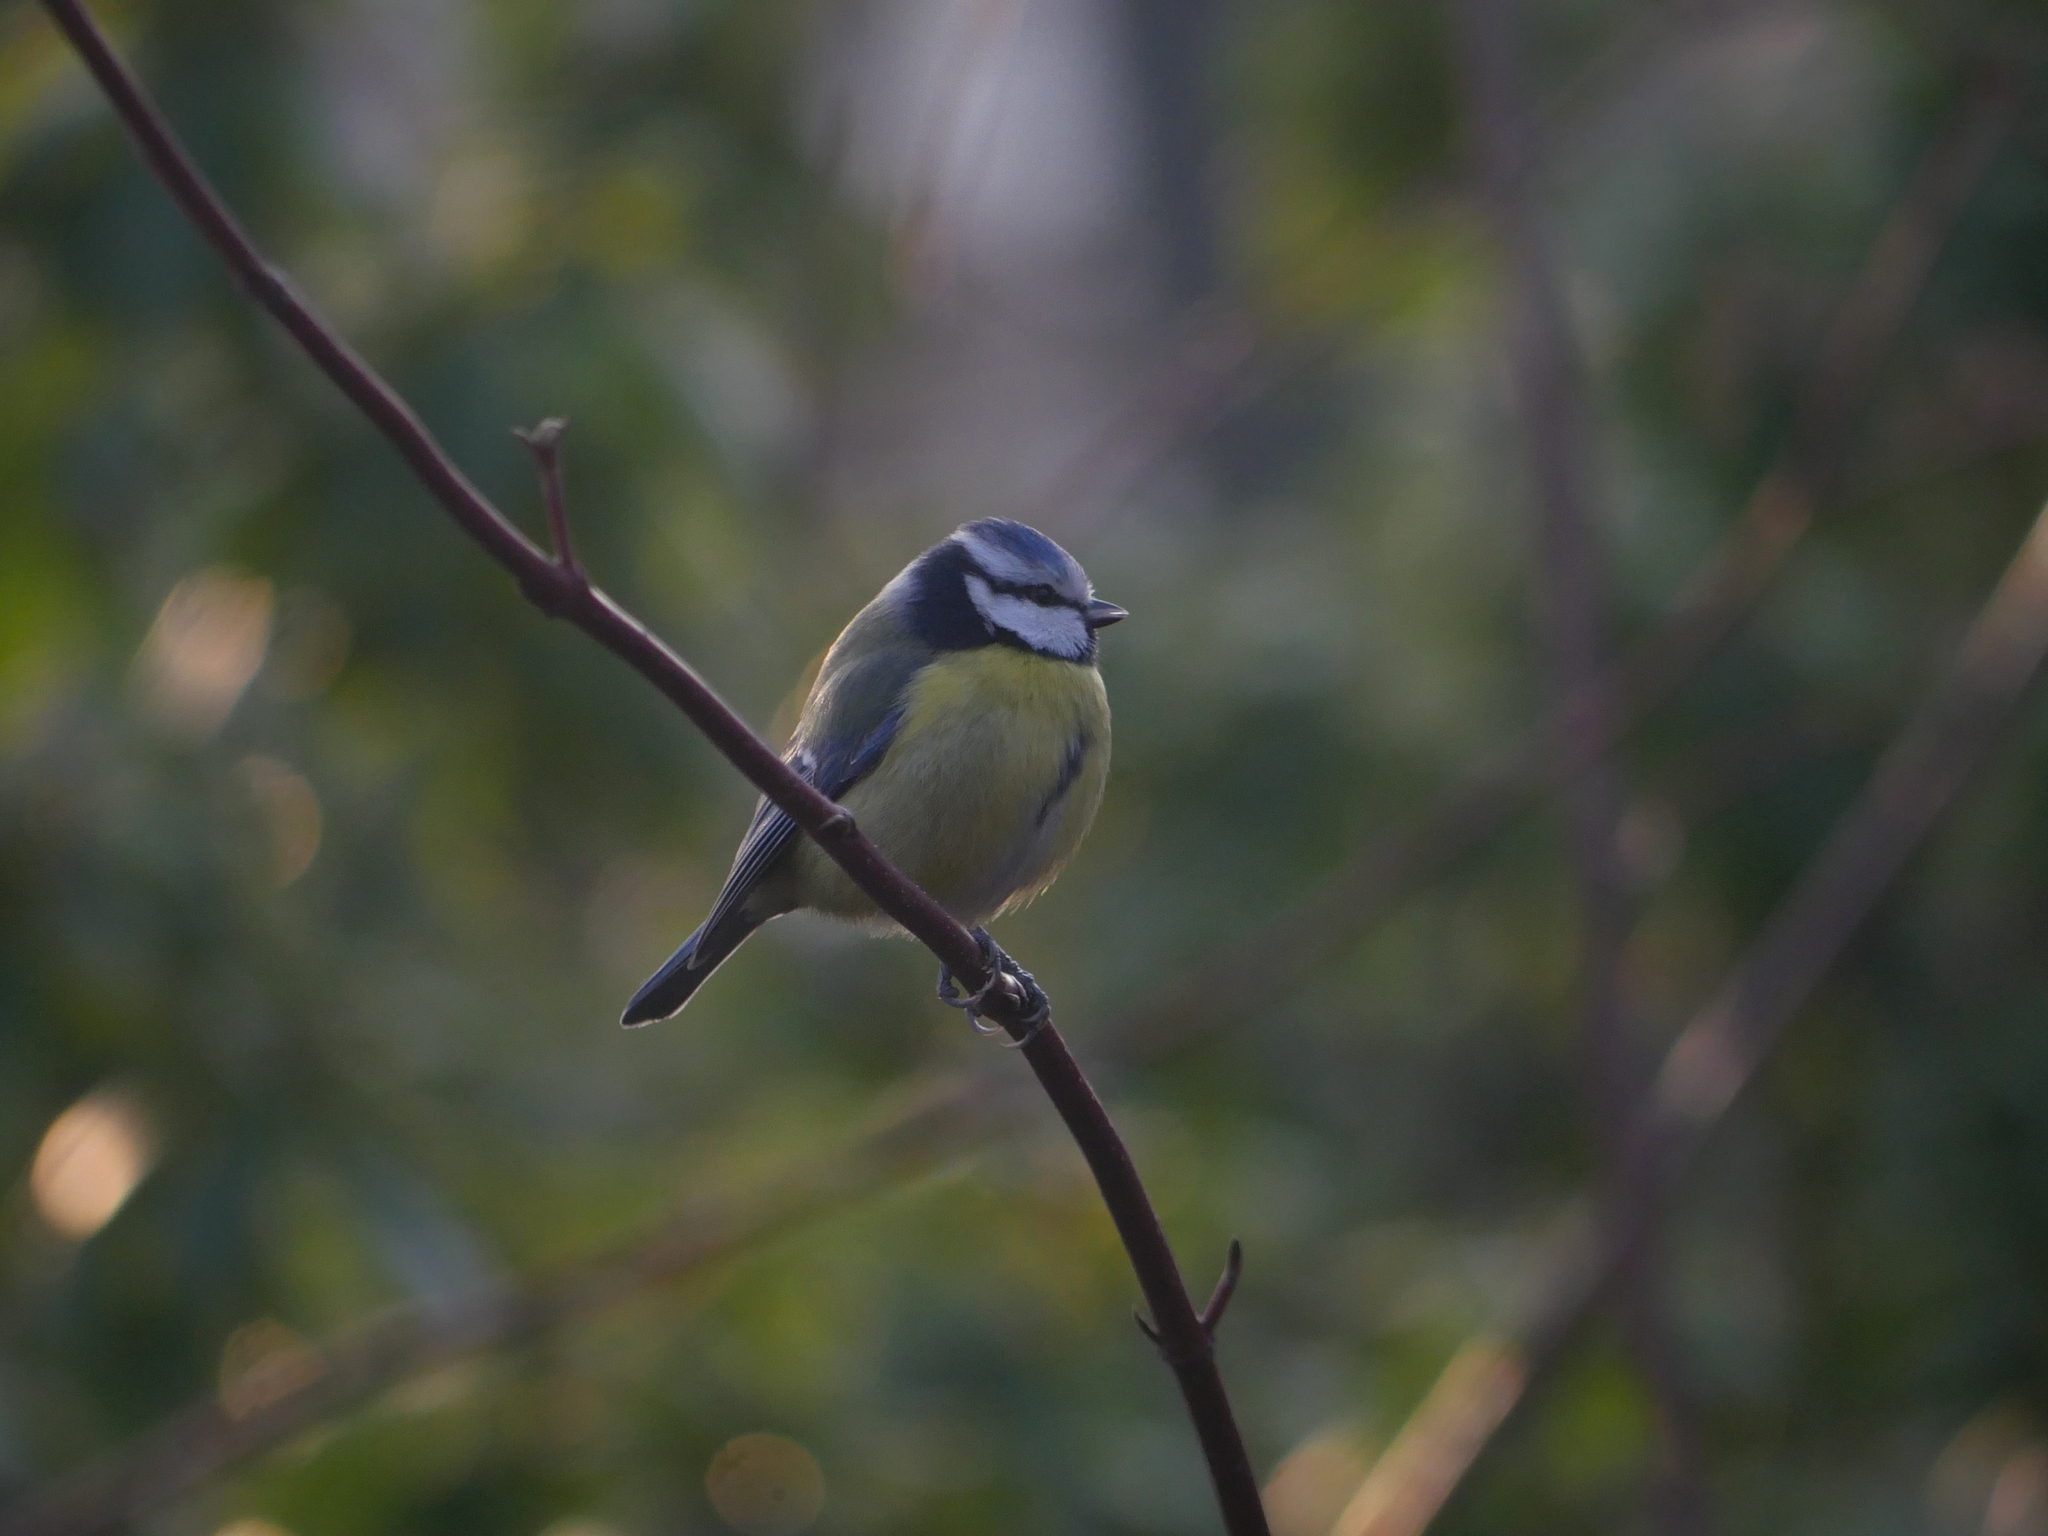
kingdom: Animalia
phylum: Chordata
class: Aves
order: Passeriformes
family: Paridae
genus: Cyanistes
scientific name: Cyanistes caeruleus
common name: Eurasian blue tit
